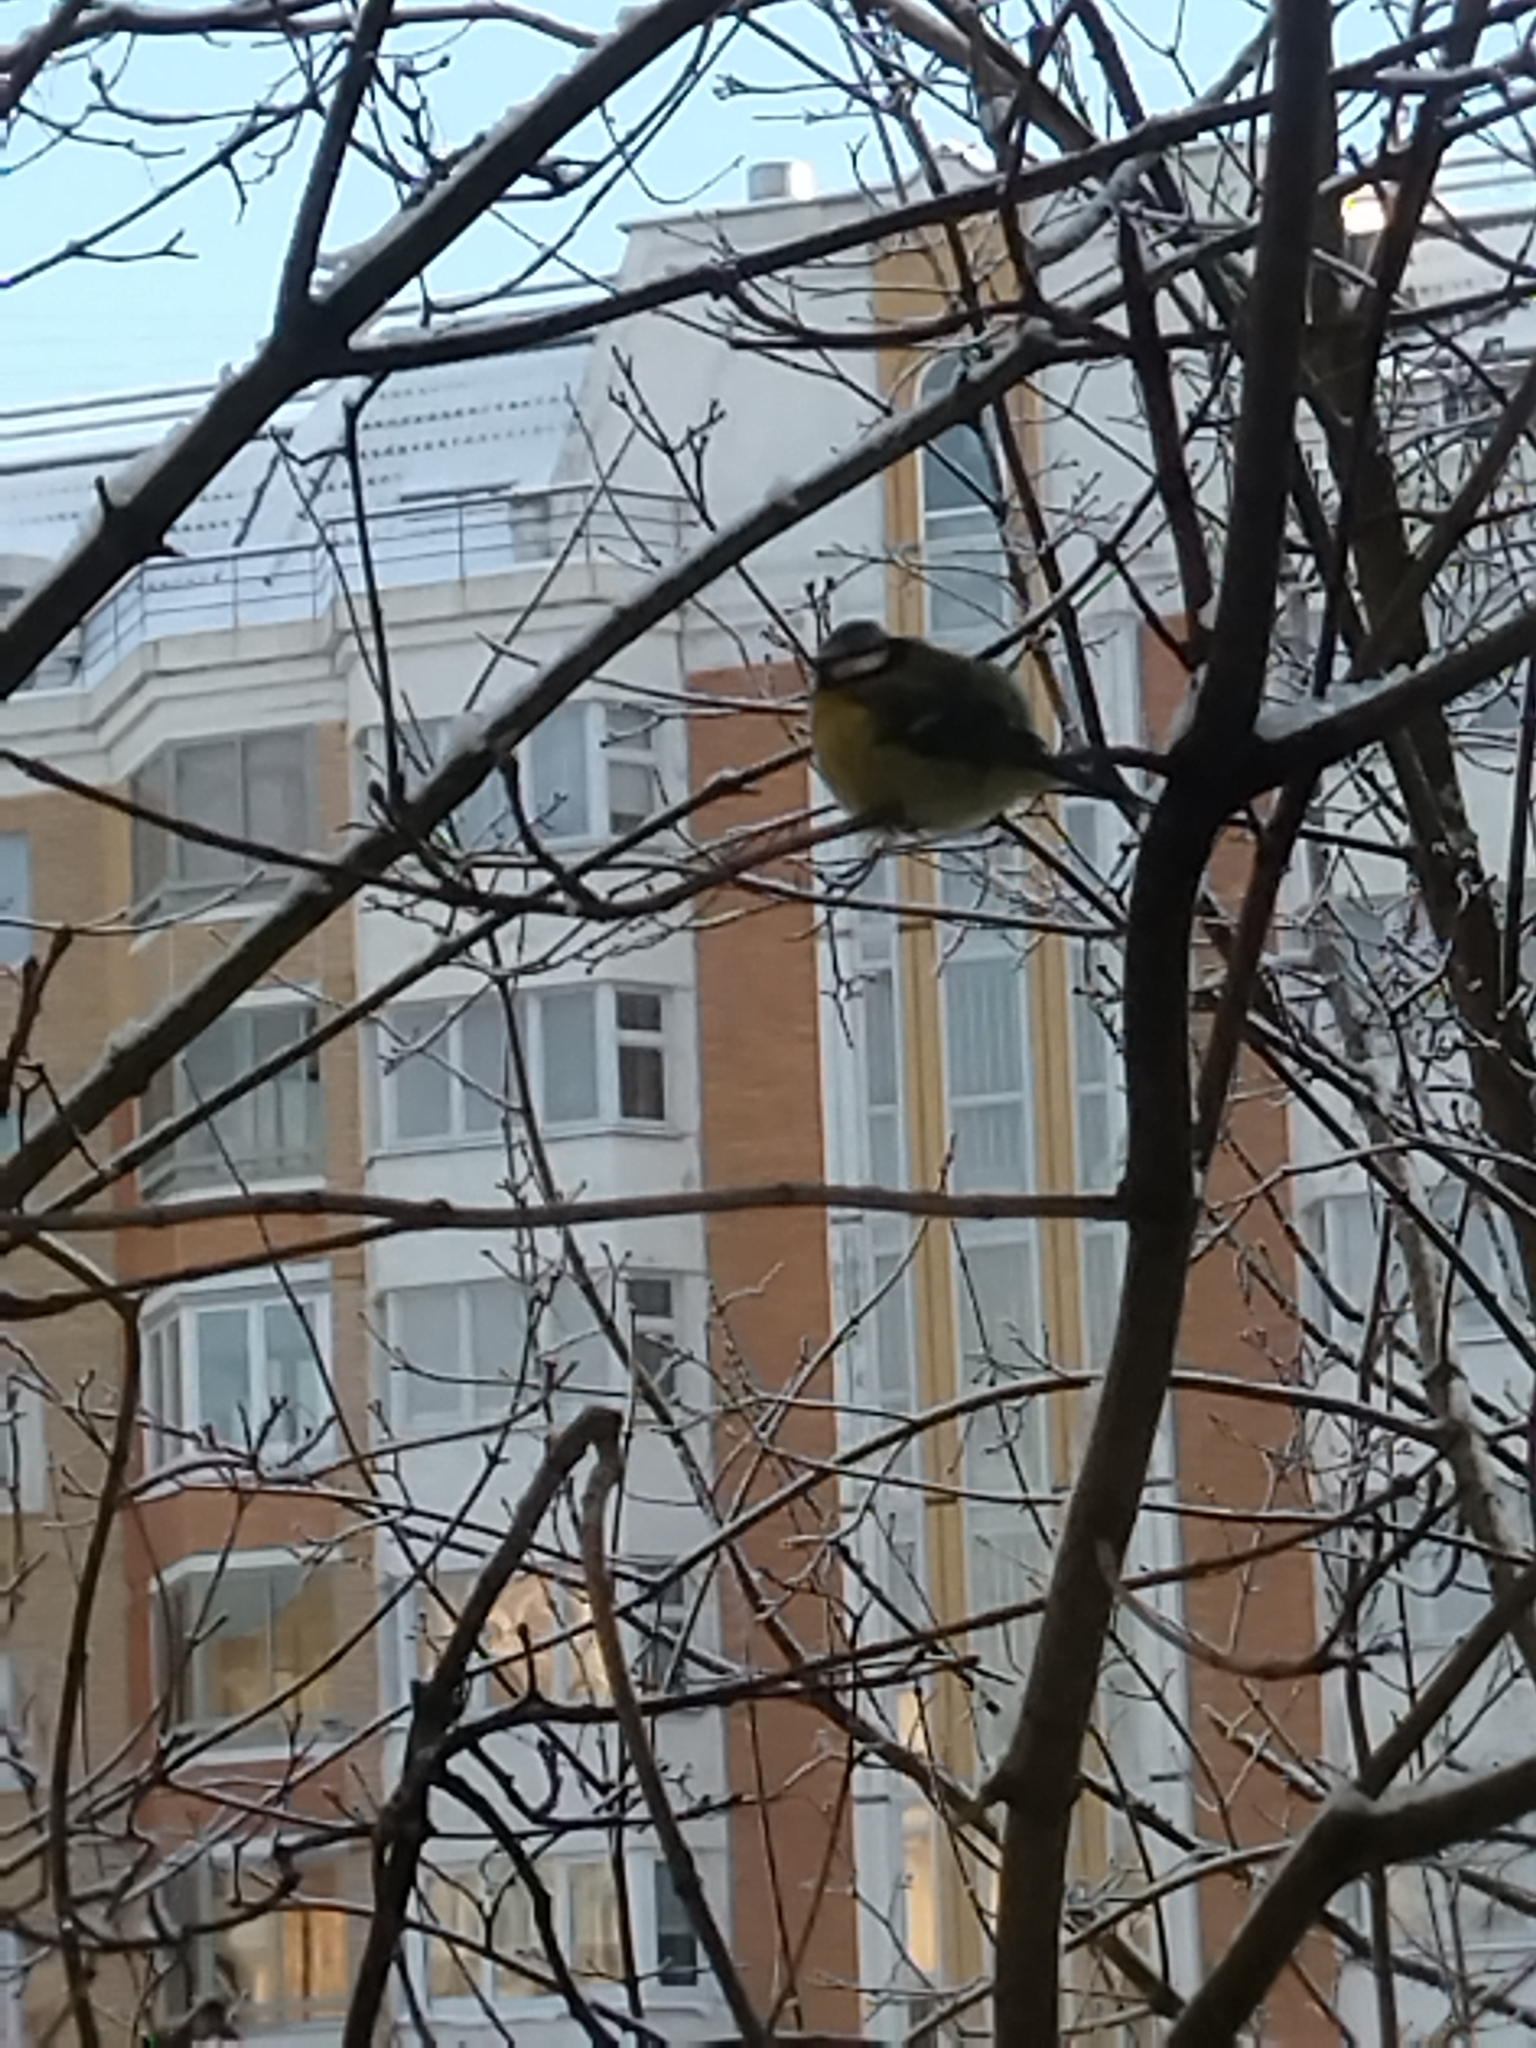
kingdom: Animalia
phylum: Chordata
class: Aves
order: Passeriformes
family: Paridae
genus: Cyanistes
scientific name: Cyanistes caeruleus
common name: Eurasian blue tit
